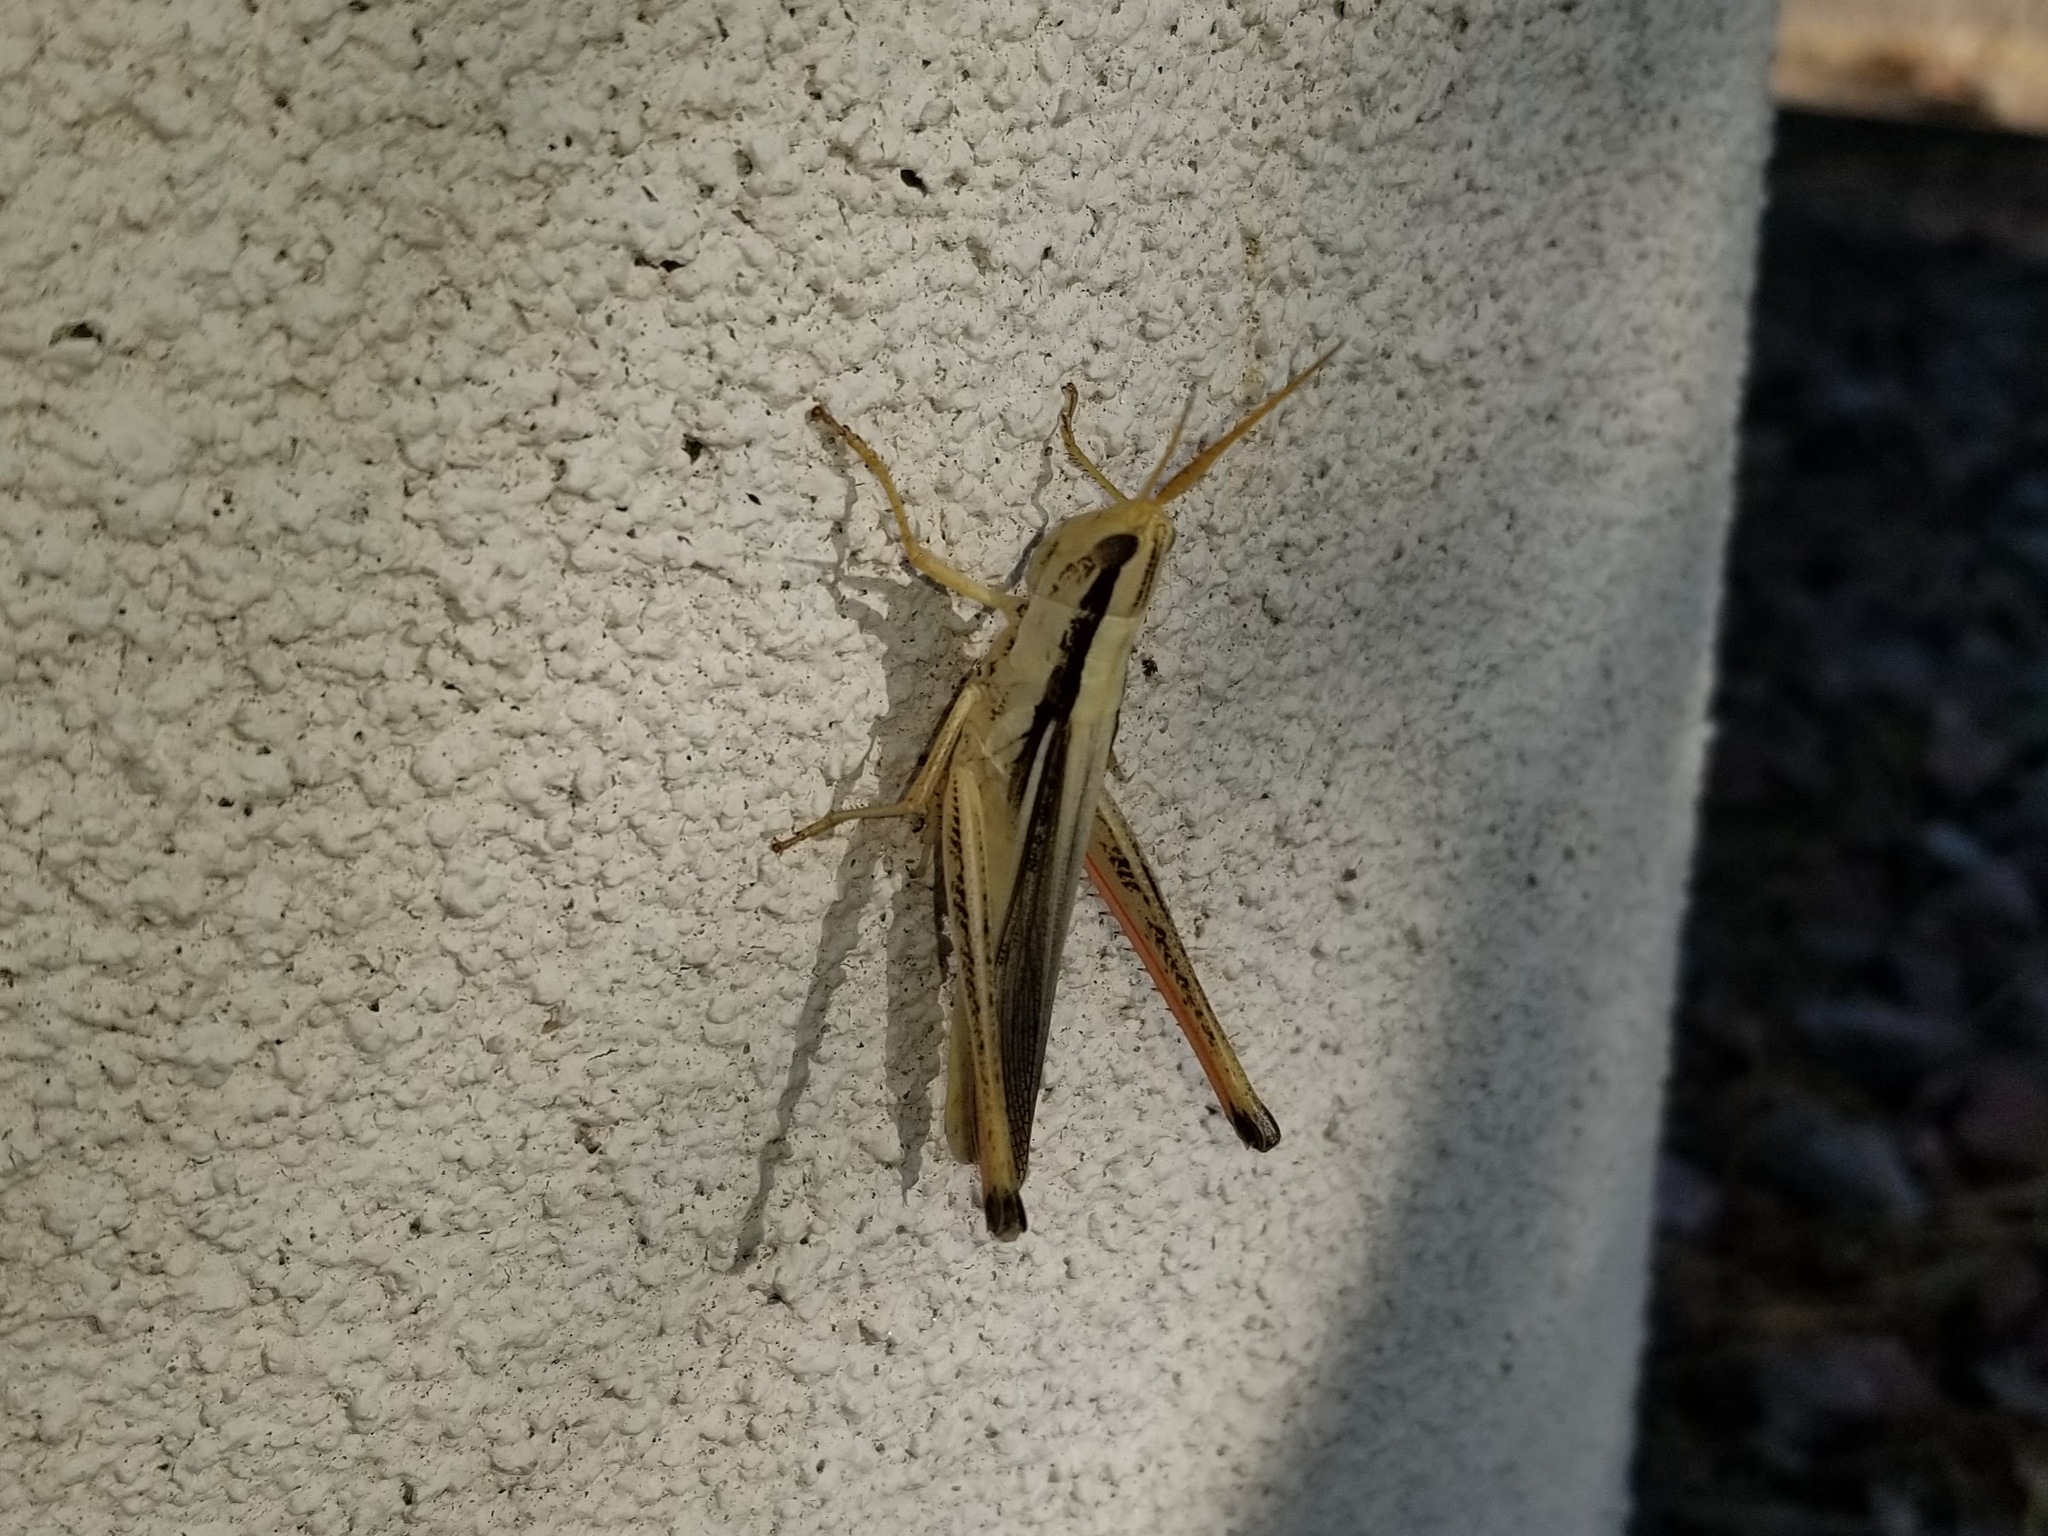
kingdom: Animalia
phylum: Arthropoda
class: Insecta
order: Orthoptera
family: Acrididae
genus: Mermiria
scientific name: Mermiria bivittata
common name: Two-striped mermiria grasshopper
